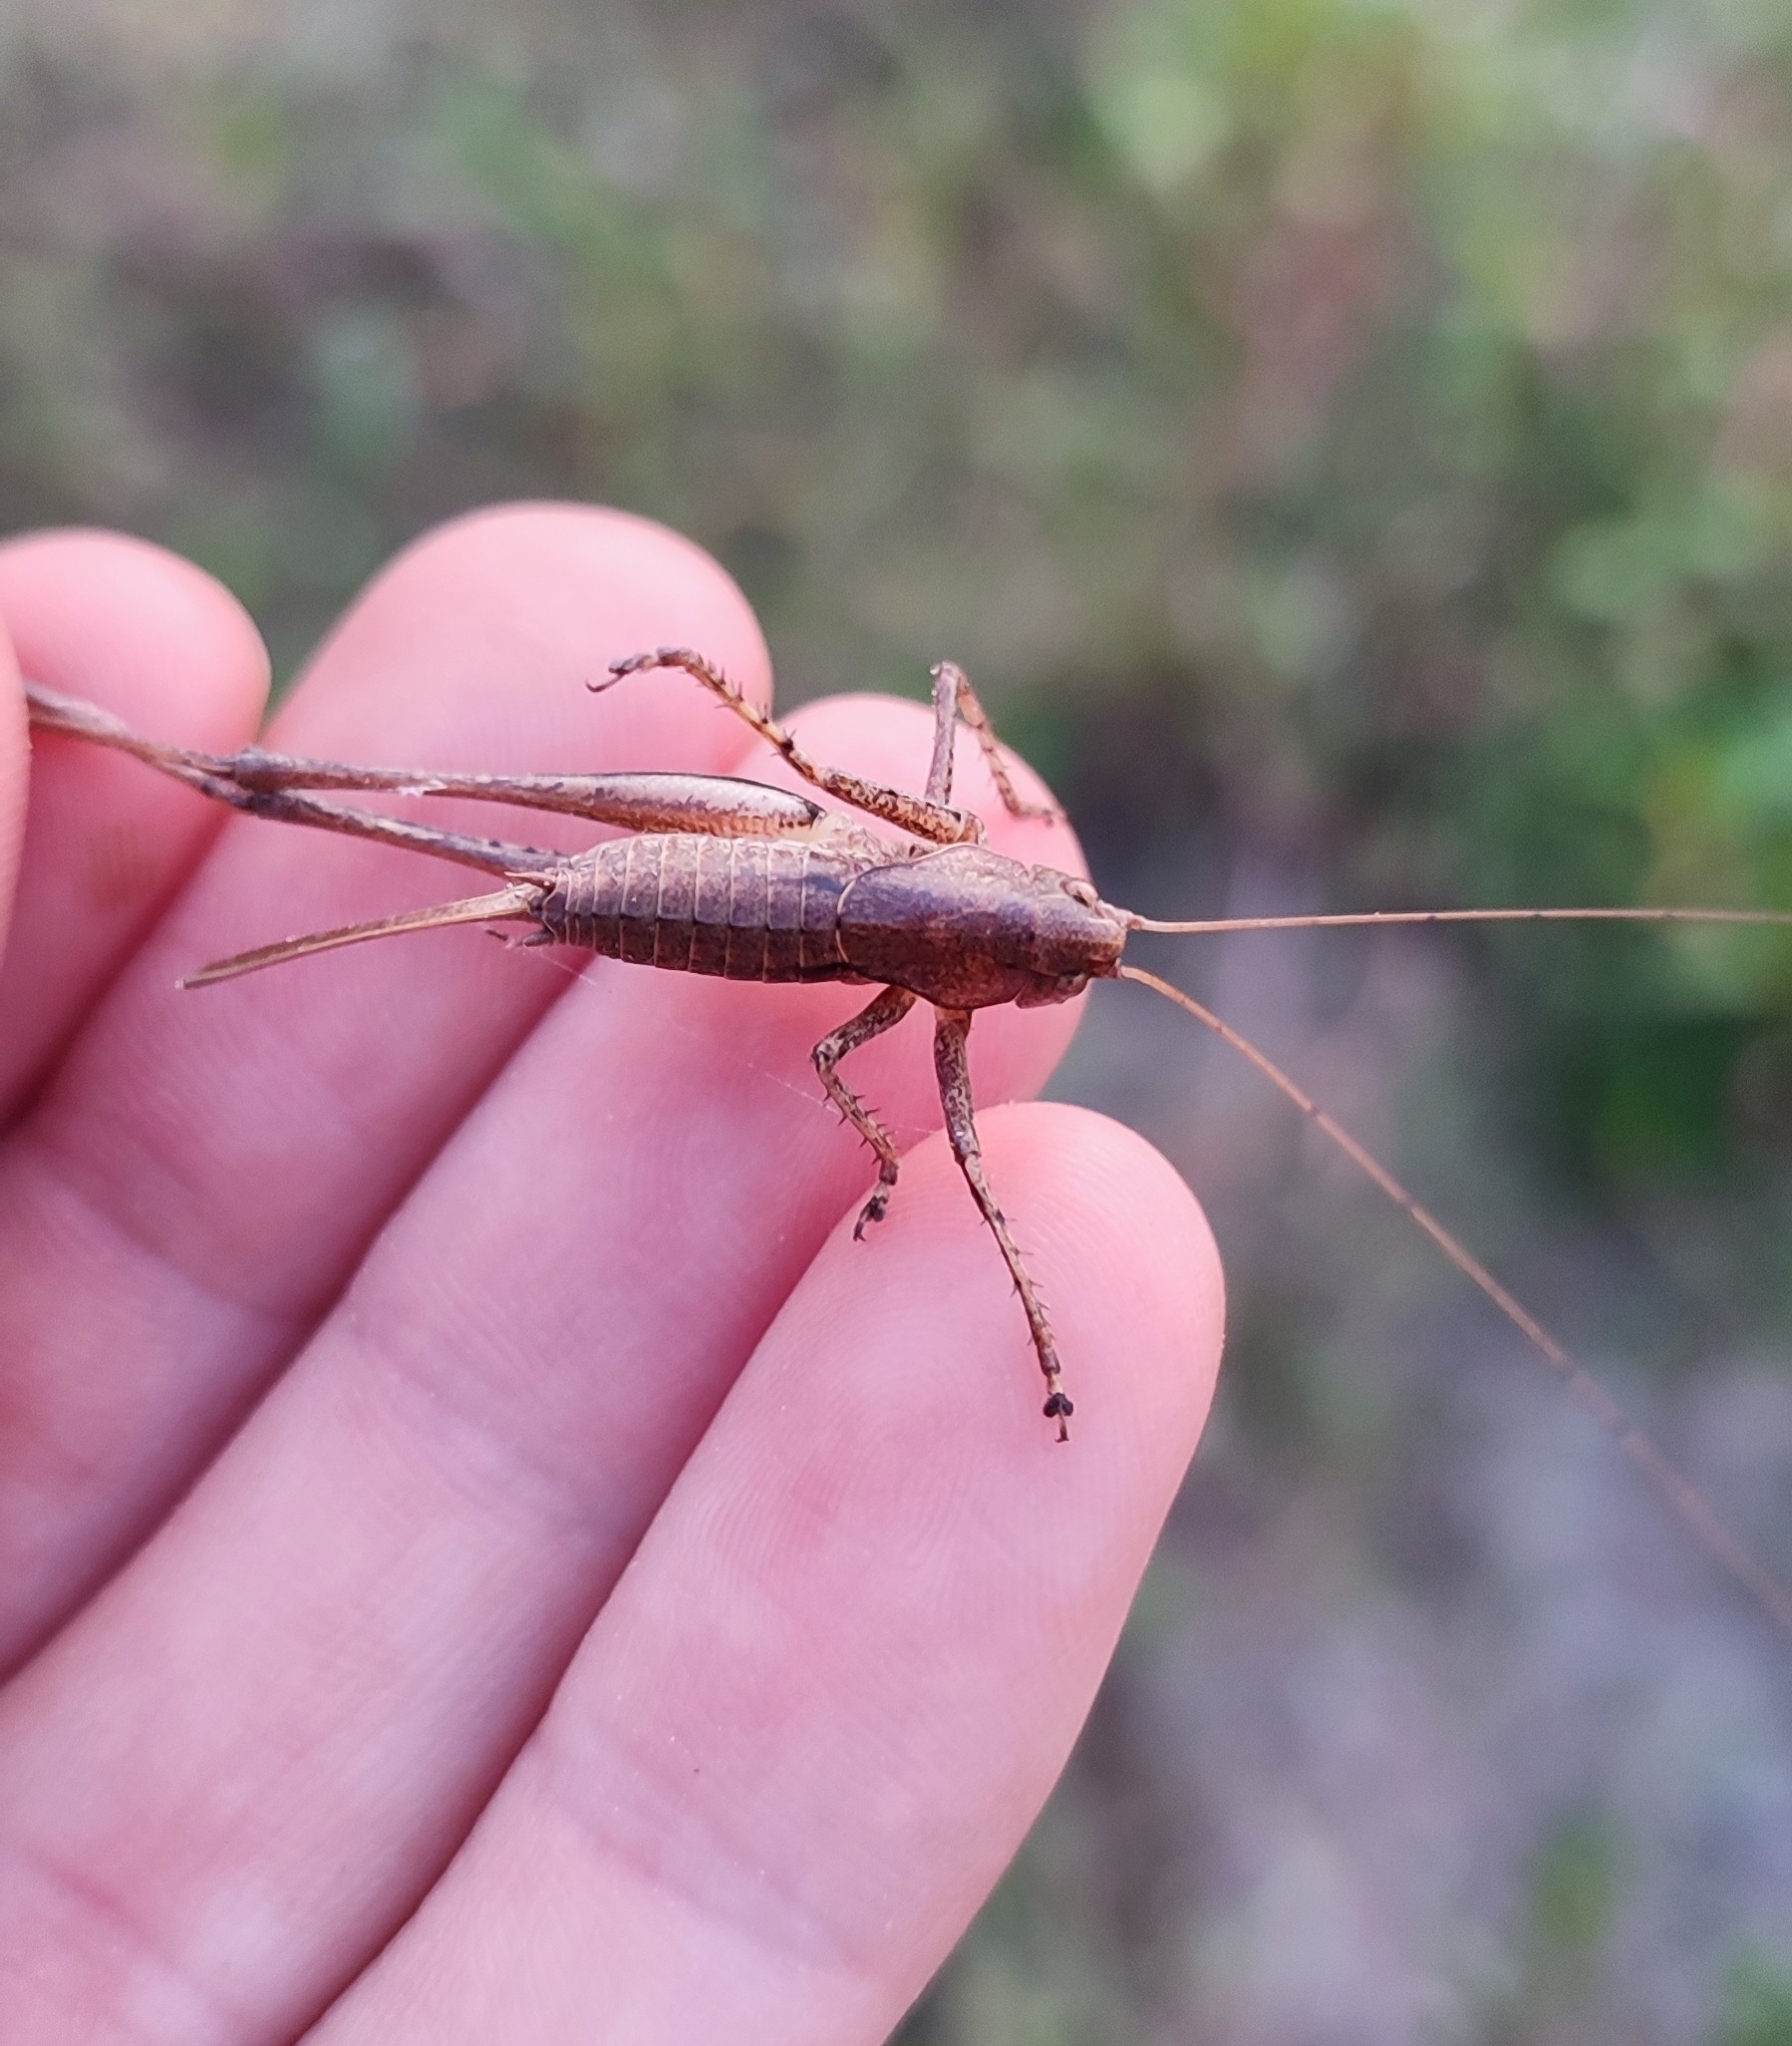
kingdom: Animalia
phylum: Arthropoda
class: Insecta
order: Orthoptera
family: Tettigoniidae
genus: Rhacocleis
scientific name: Rhacocleis poneli
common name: Ponel's bush-cricket
